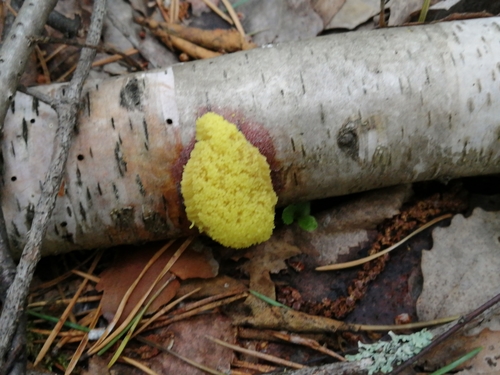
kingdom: Protozoa
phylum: Mycetozoa
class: Myxomycetes
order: Physarales
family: Physaraceae
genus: Fuligo
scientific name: Fuligo septica
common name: Dog vomit slime mold
